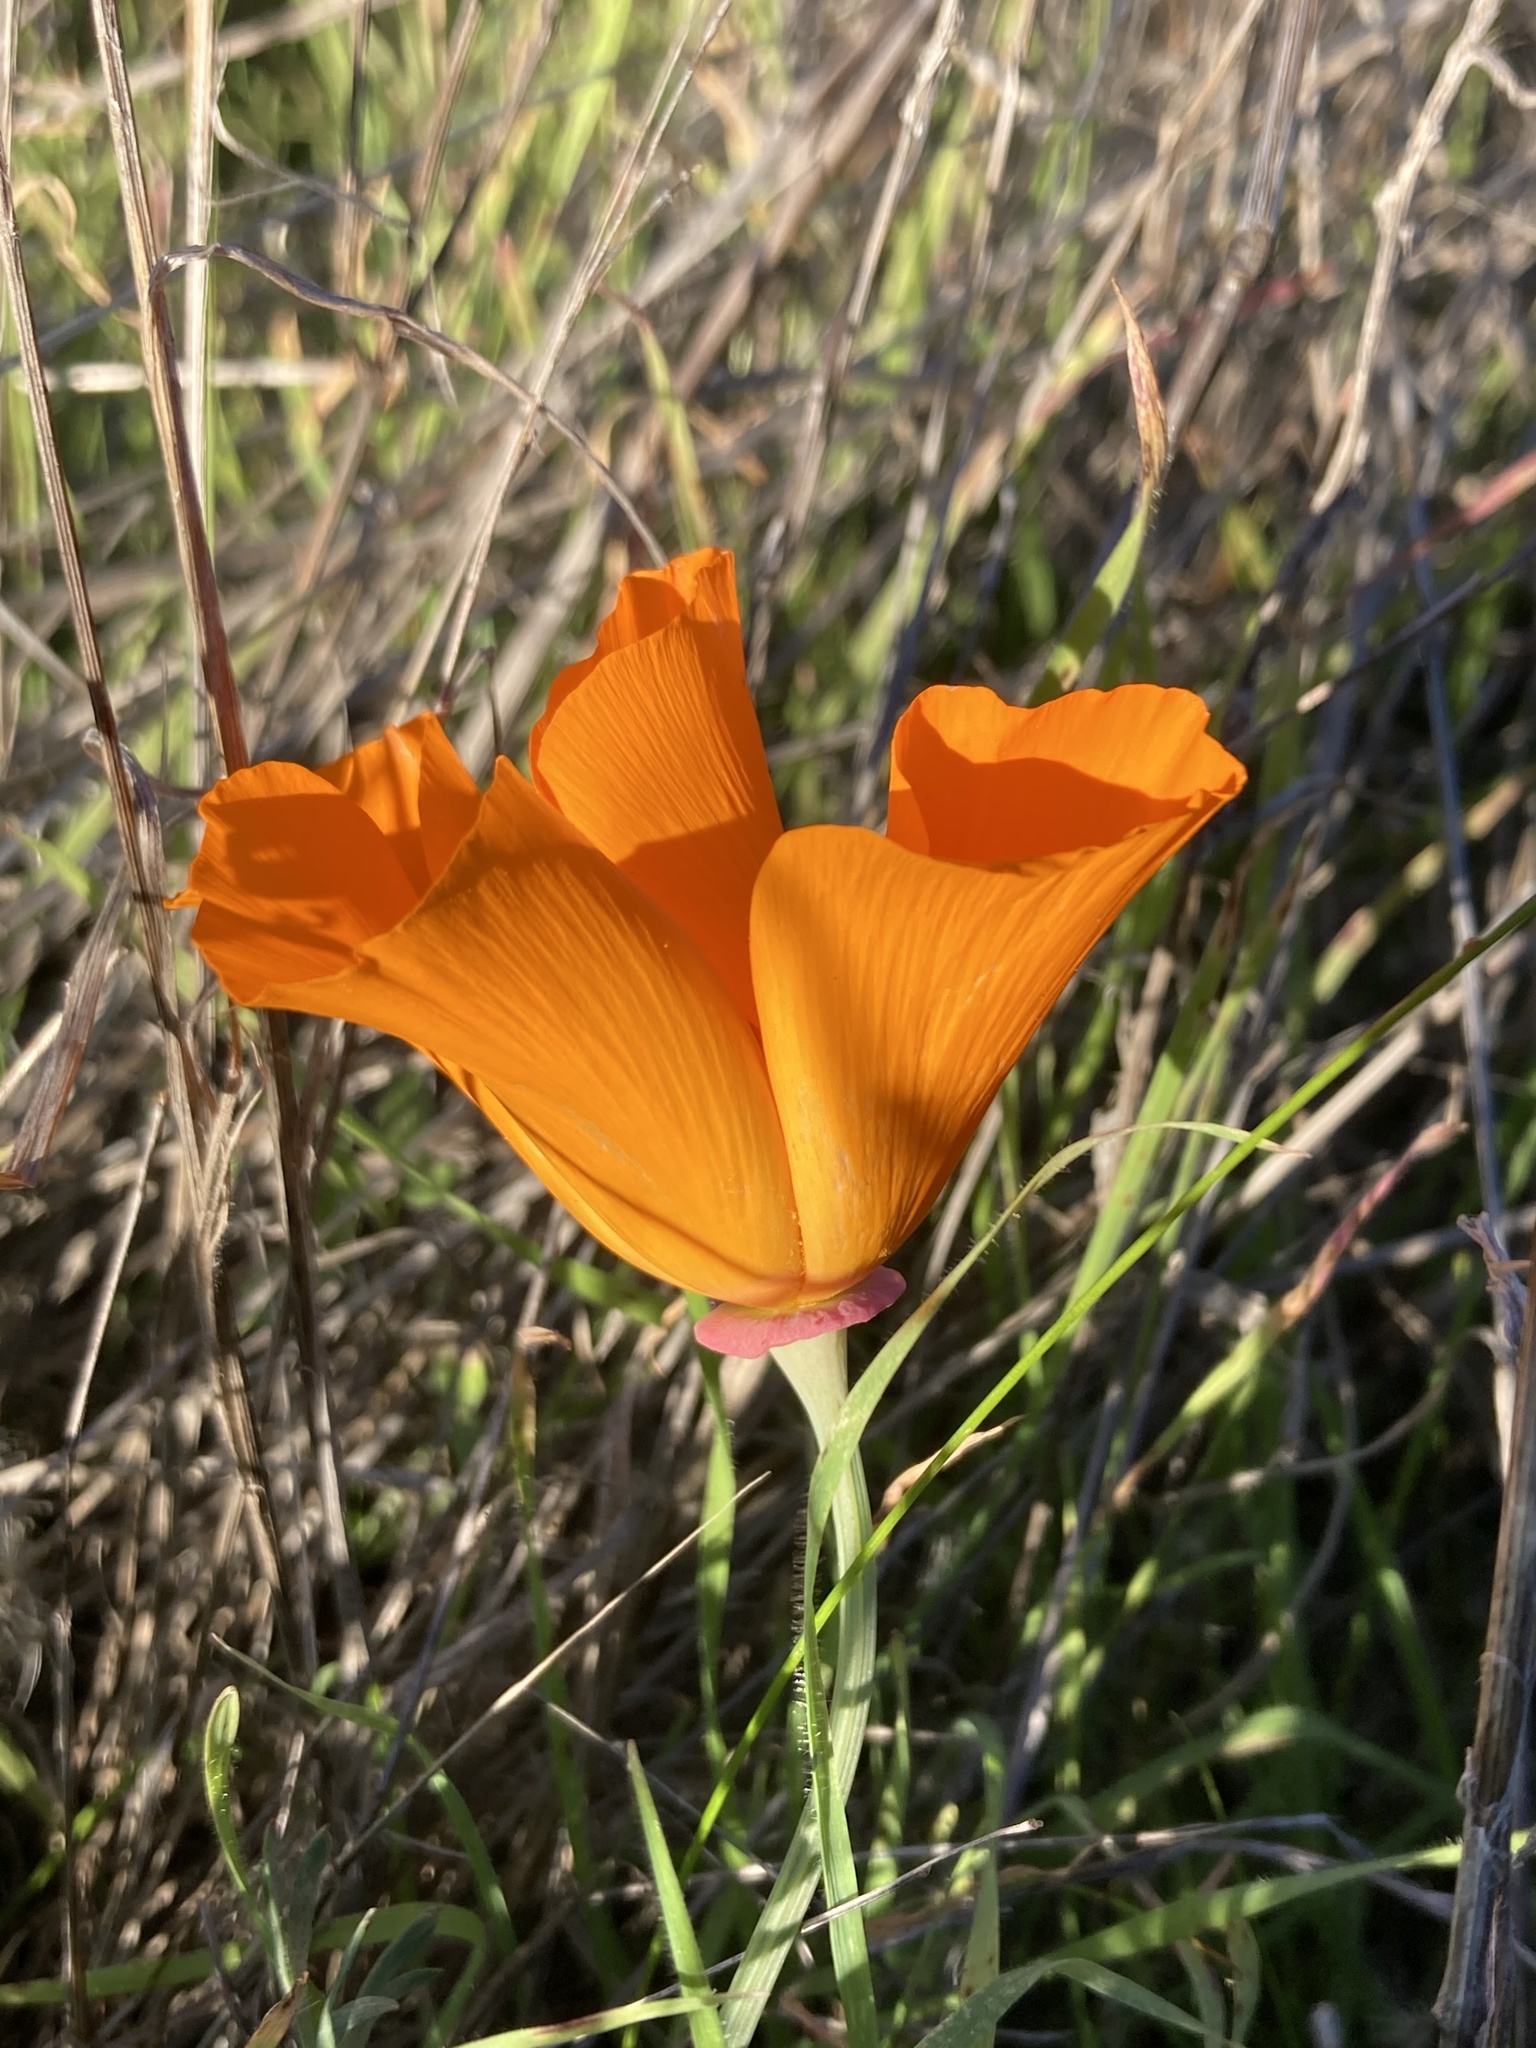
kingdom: Plantae
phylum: Tracheophyta
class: Magnoliopsida
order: Ranunculales
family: Papaveraceae
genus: Eschscholzia
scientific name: Eschscholzia californica
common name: California poppy
